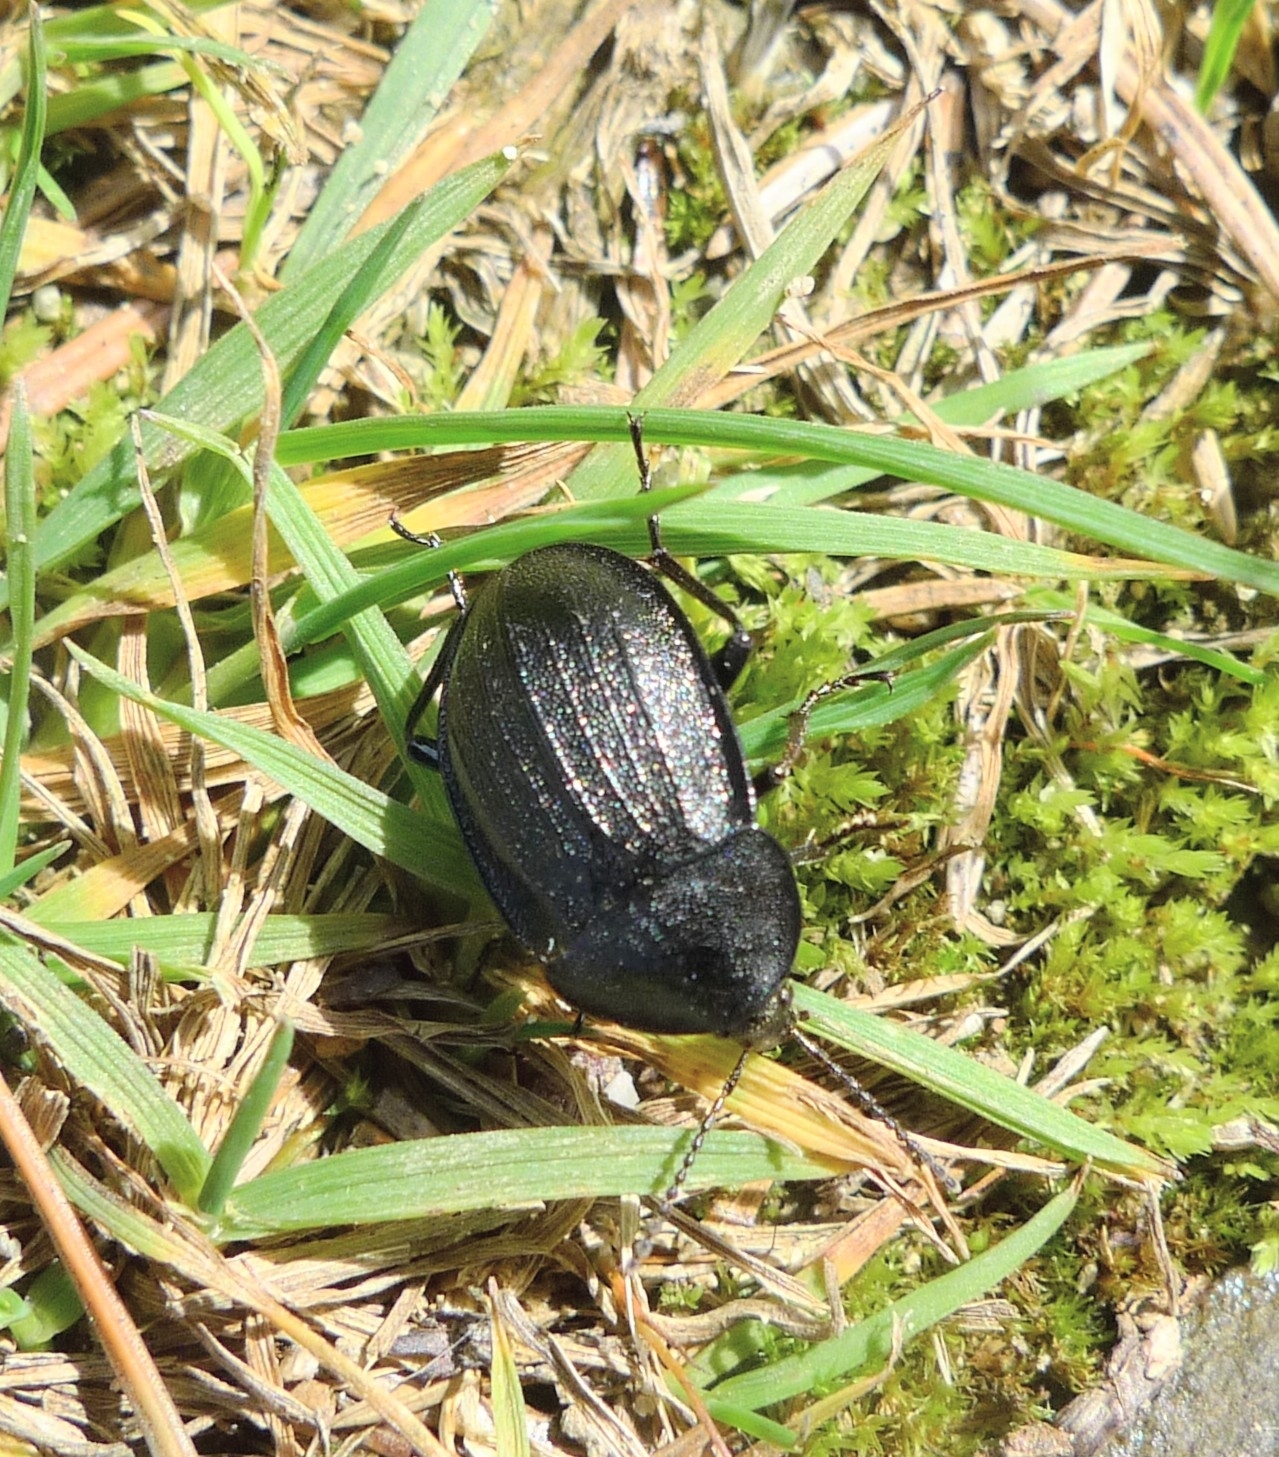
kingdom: Animalia
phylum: Arthropoda
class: Insecta
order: Coleoptera
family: Staphylinidae
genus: Silpha
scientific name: Silpha atrata
